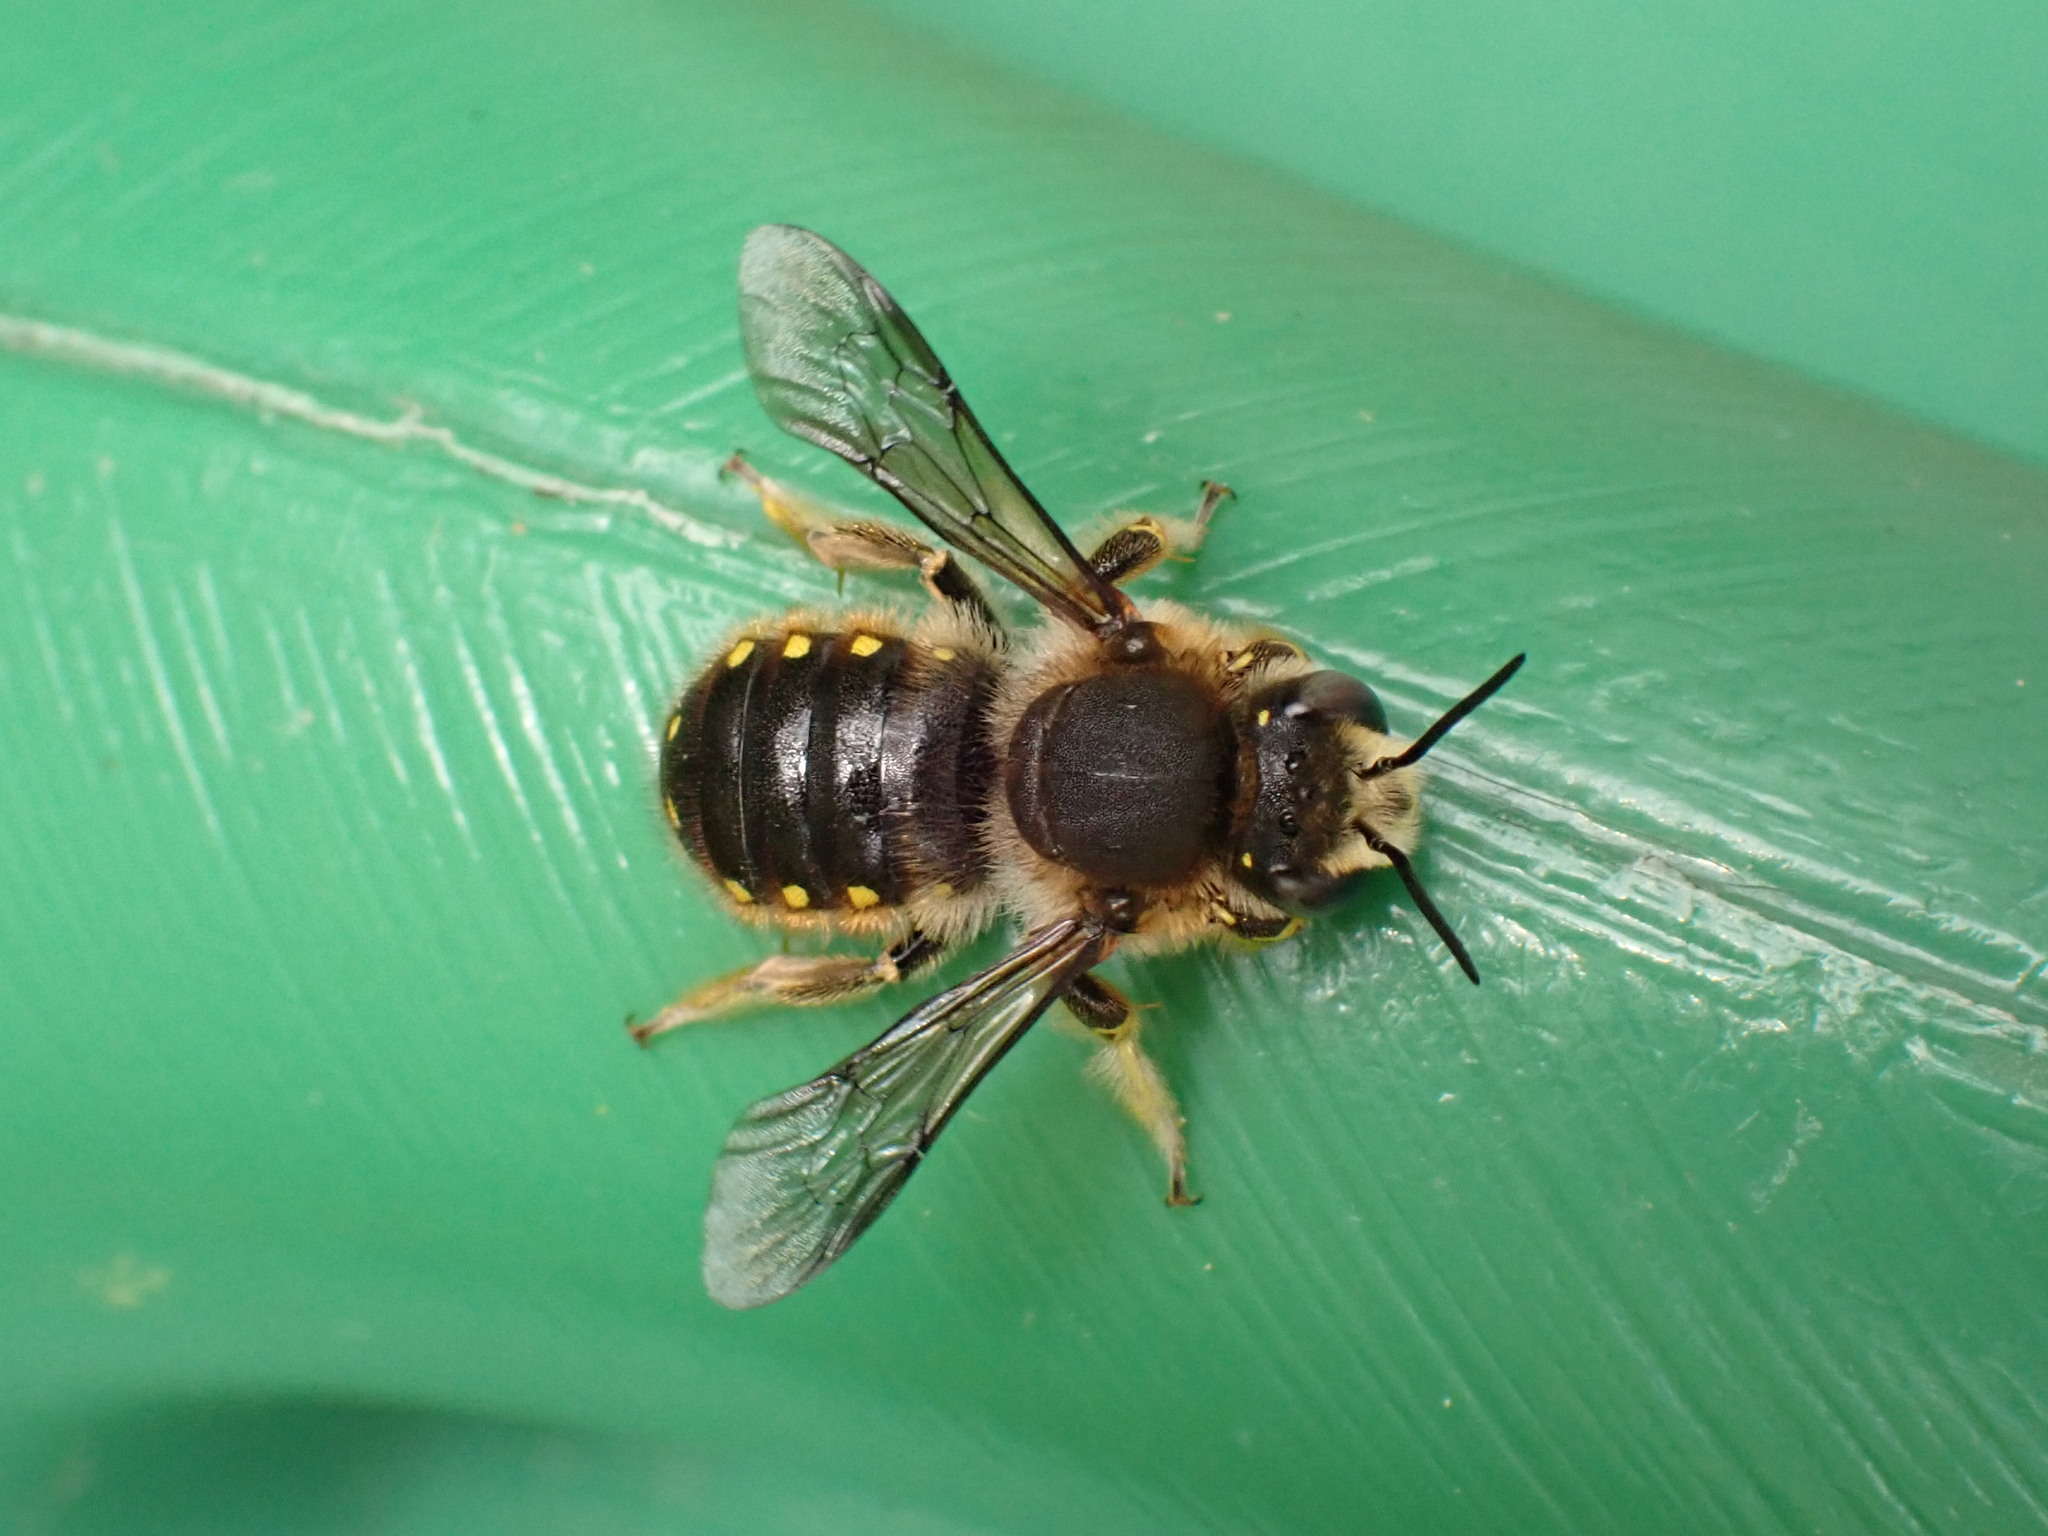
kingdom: Animalia
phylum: Arthropoda
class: Insecta
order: Hymenoptera
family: Megachilidae
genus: Anthidium
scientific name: Anthidium manicatum
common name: Wool carder bee
